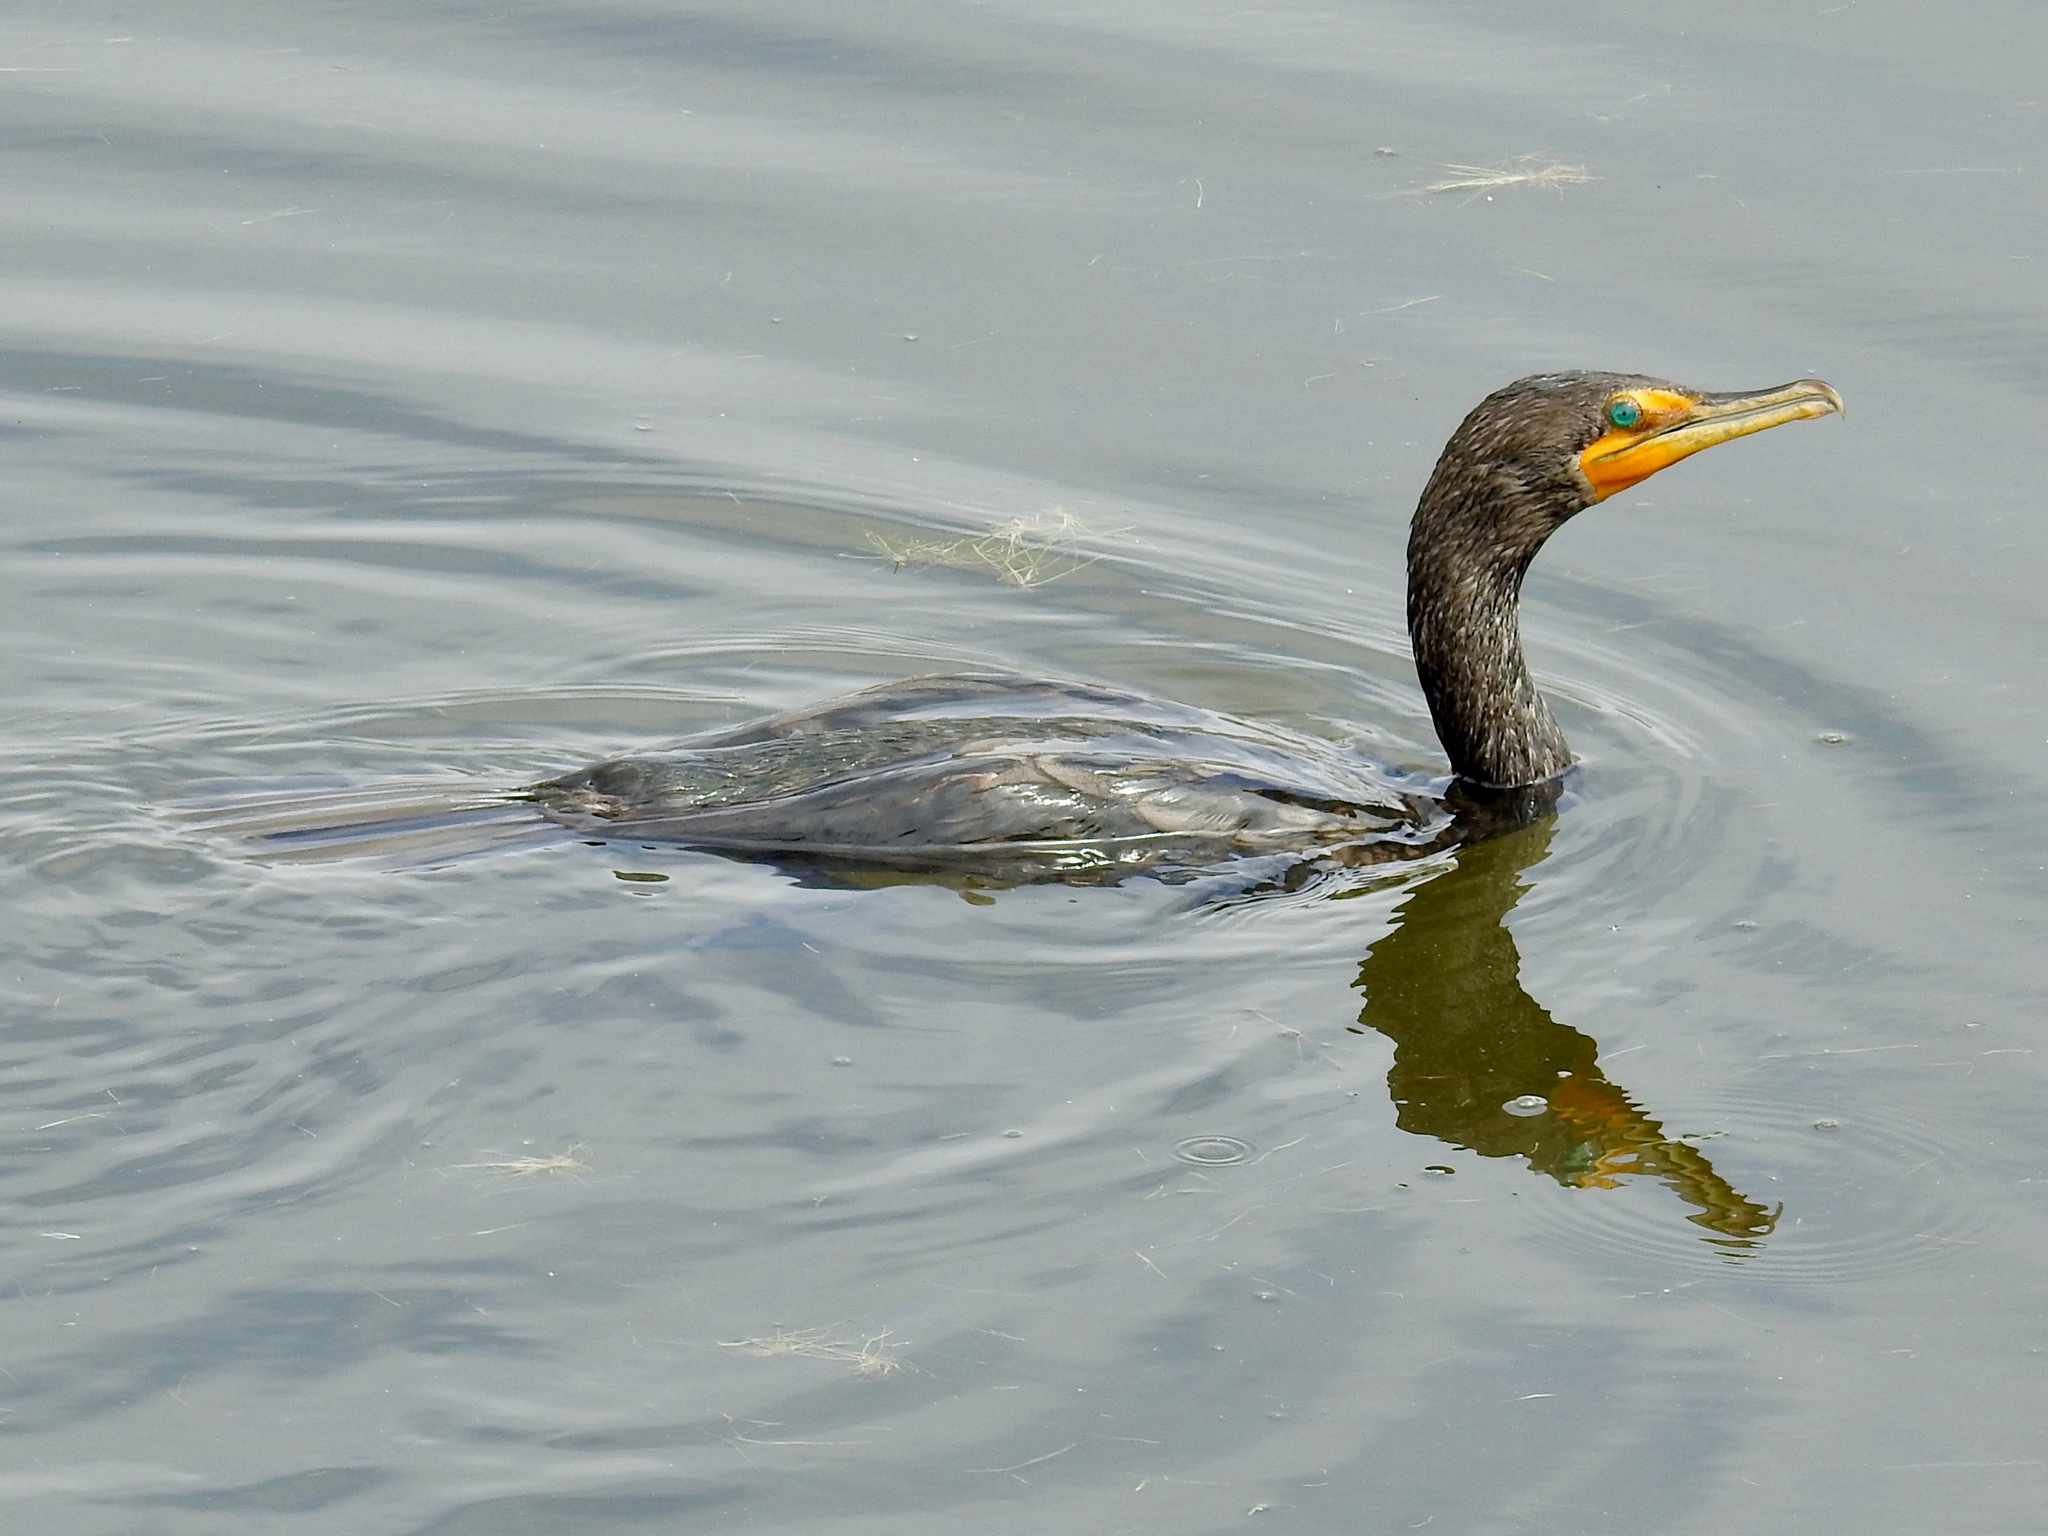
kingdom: Animalia
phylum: Chordata
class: Aves
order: Suliformes
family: Phalacrocoracidae
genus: Phalacrocorax
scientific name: Phalacrocorax auritus
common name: Double-crested cormorant
